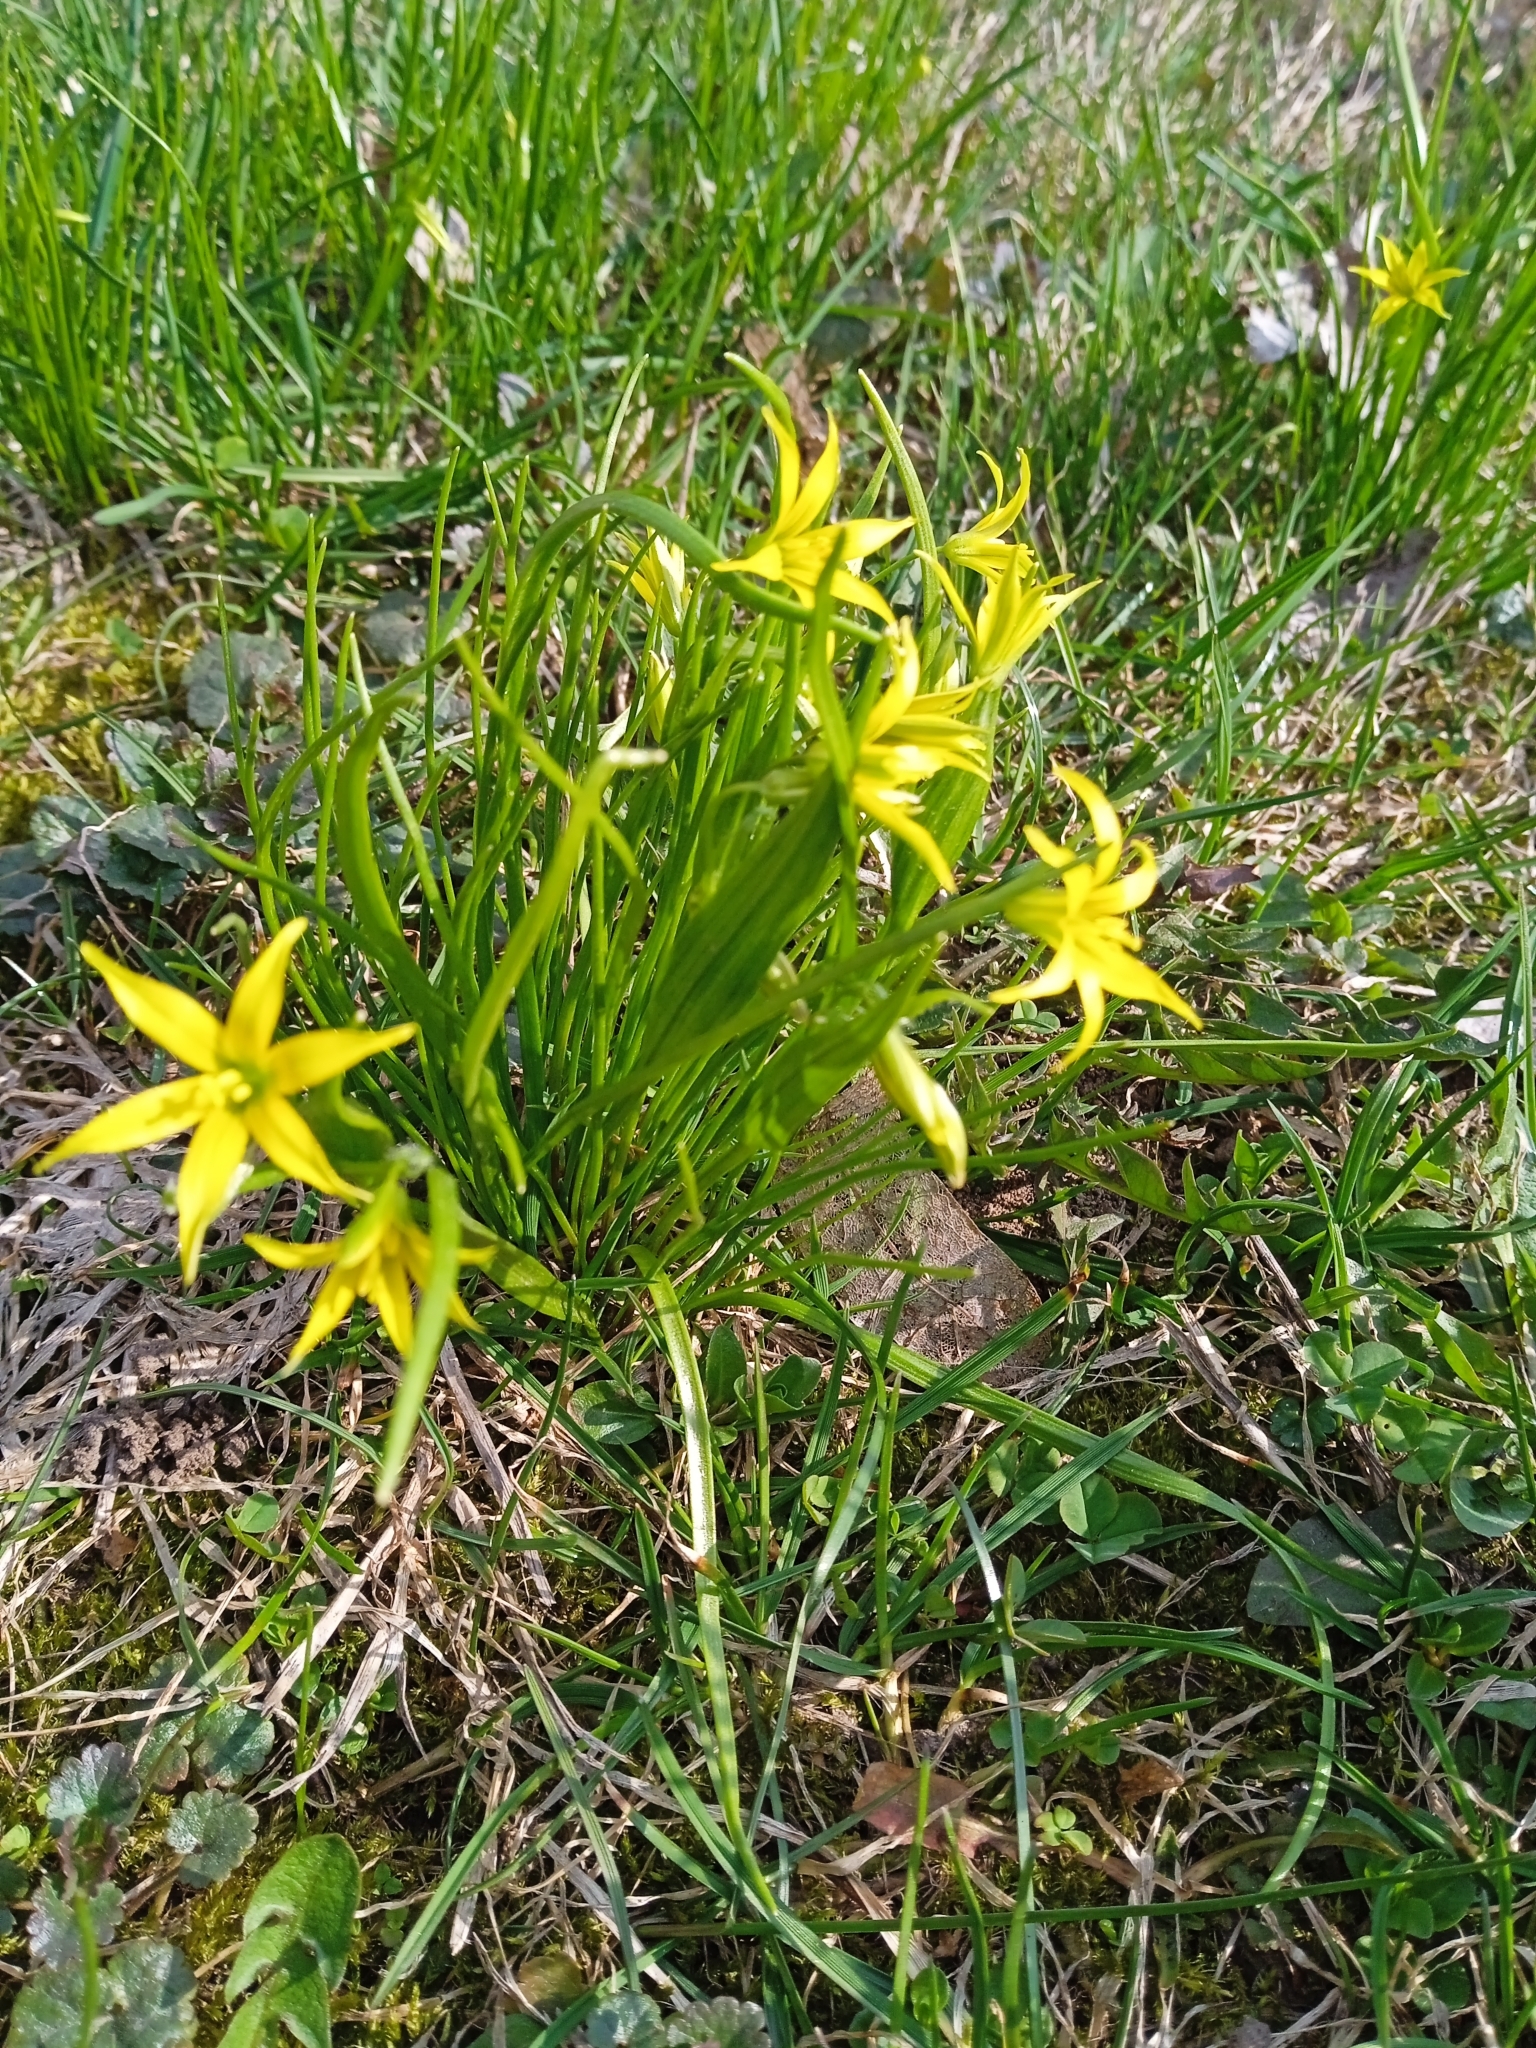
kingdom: Plantae
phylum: Tracheophyta
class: Liliopsida
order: Liliales
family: Liliaceae
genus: Gagea
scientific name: Gagea minima
